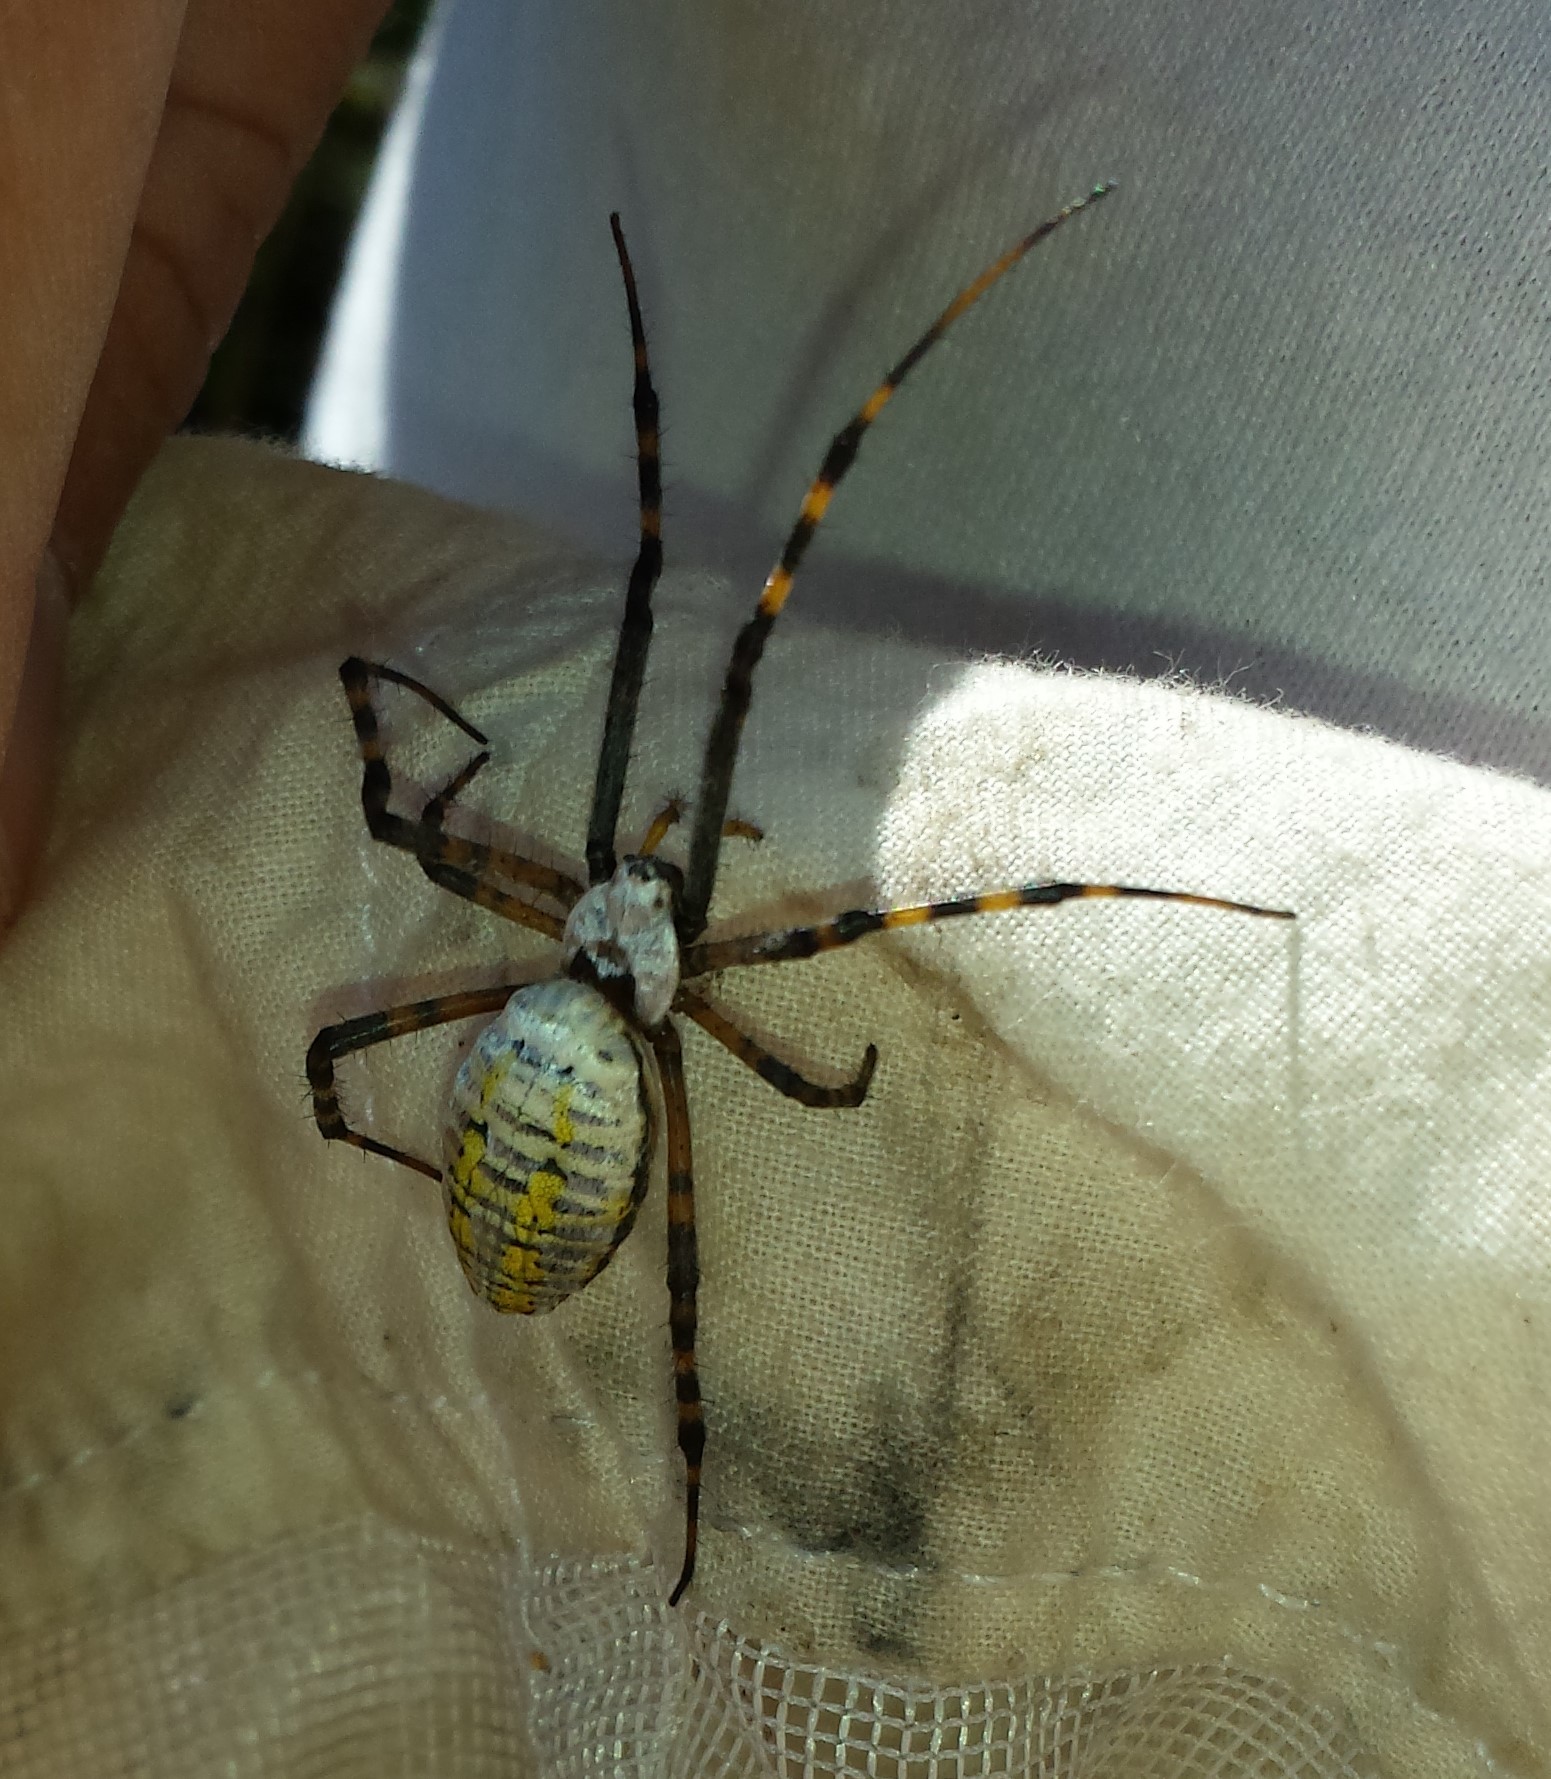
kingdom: Animalia
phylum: Arthropoda
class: Arachnida
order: Araneae
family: Araneidae
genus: Argiope
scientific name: Argiope trifasciata
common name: Banded garden spider
